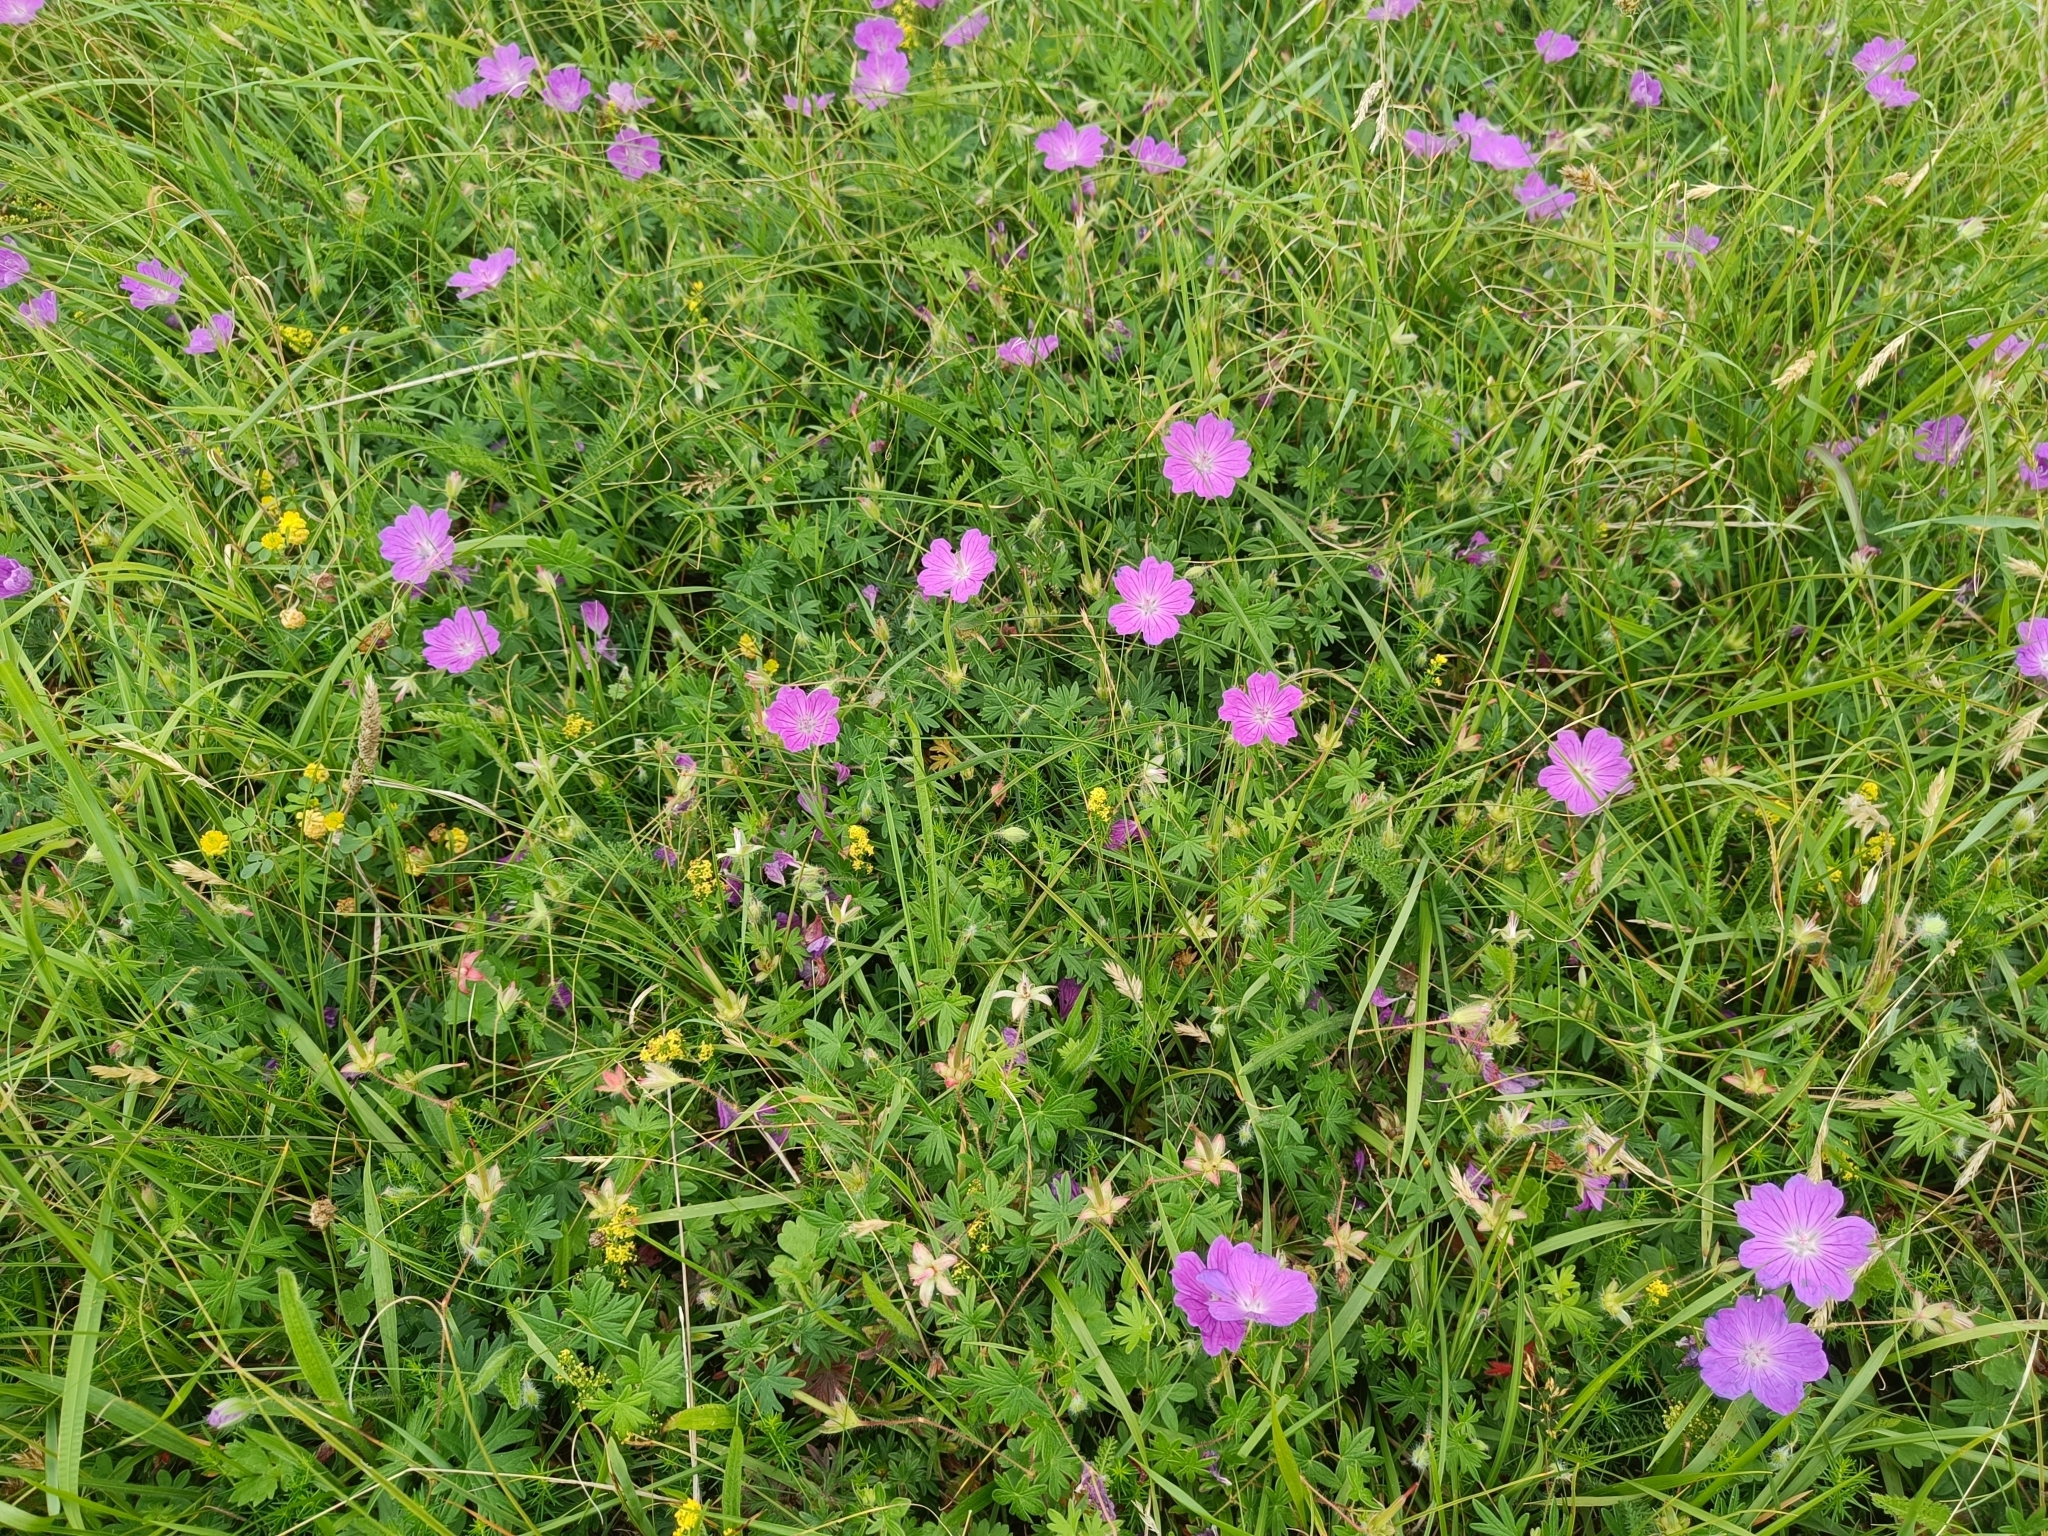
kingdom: Plantae
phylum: Tracheophyta
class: Magnoliopsida
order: Geraniales
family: Geraniaceae
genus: Geranium
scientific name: Geranium sanguineum
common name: Bloody crane's-bill
